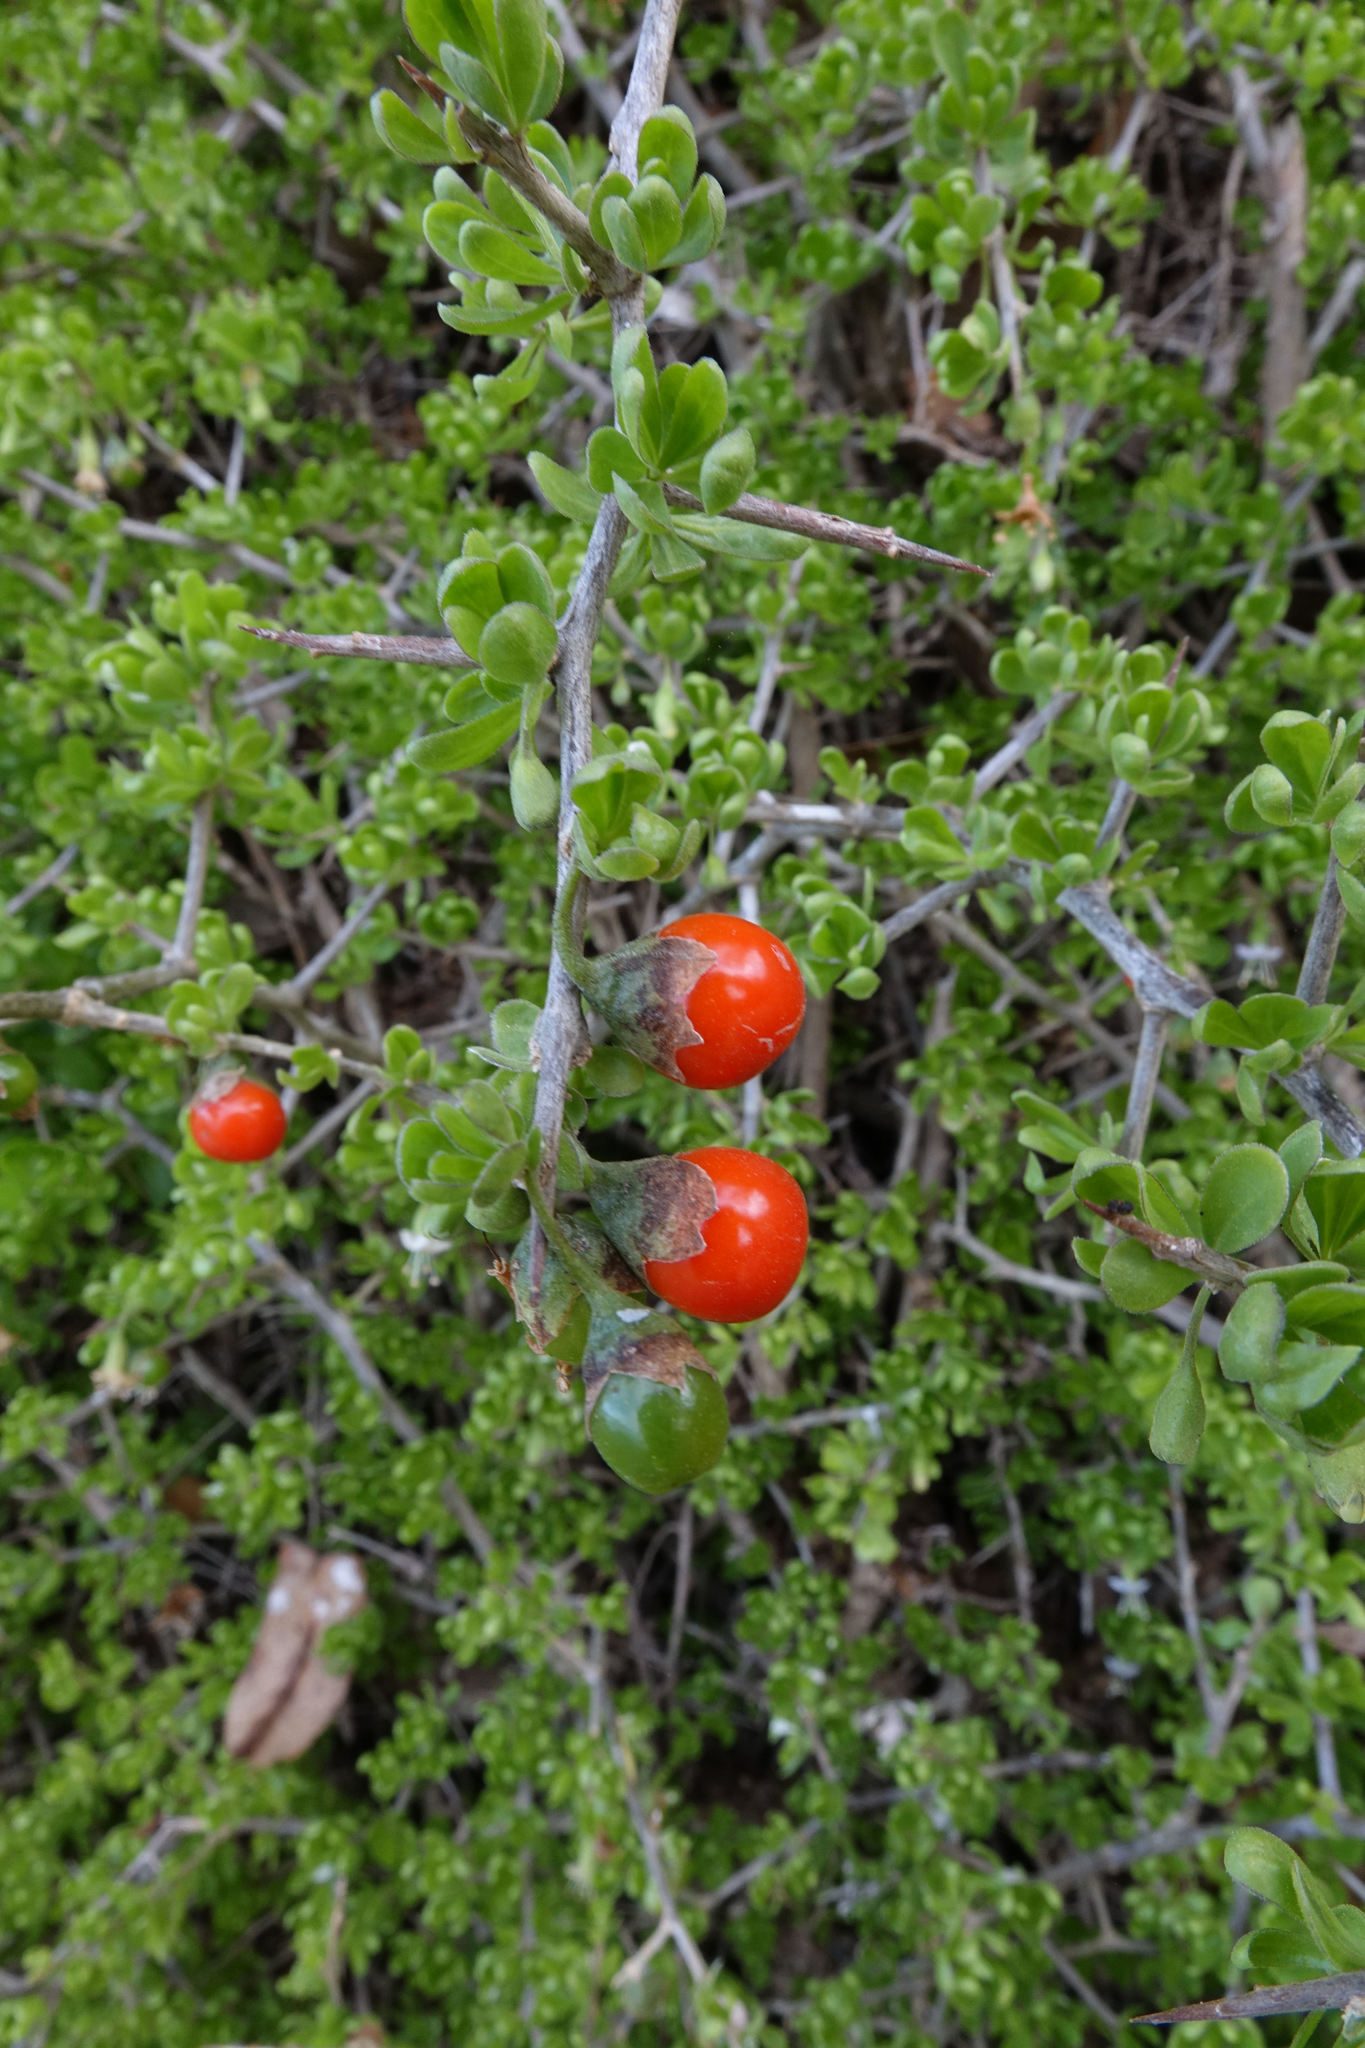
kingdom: Plantae
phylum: Tracheophyta
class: Magnoliopsida
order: Solanales
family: Solanaceae
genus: Lycium
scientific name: Lycium ferocissimum
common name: African boxthorn
